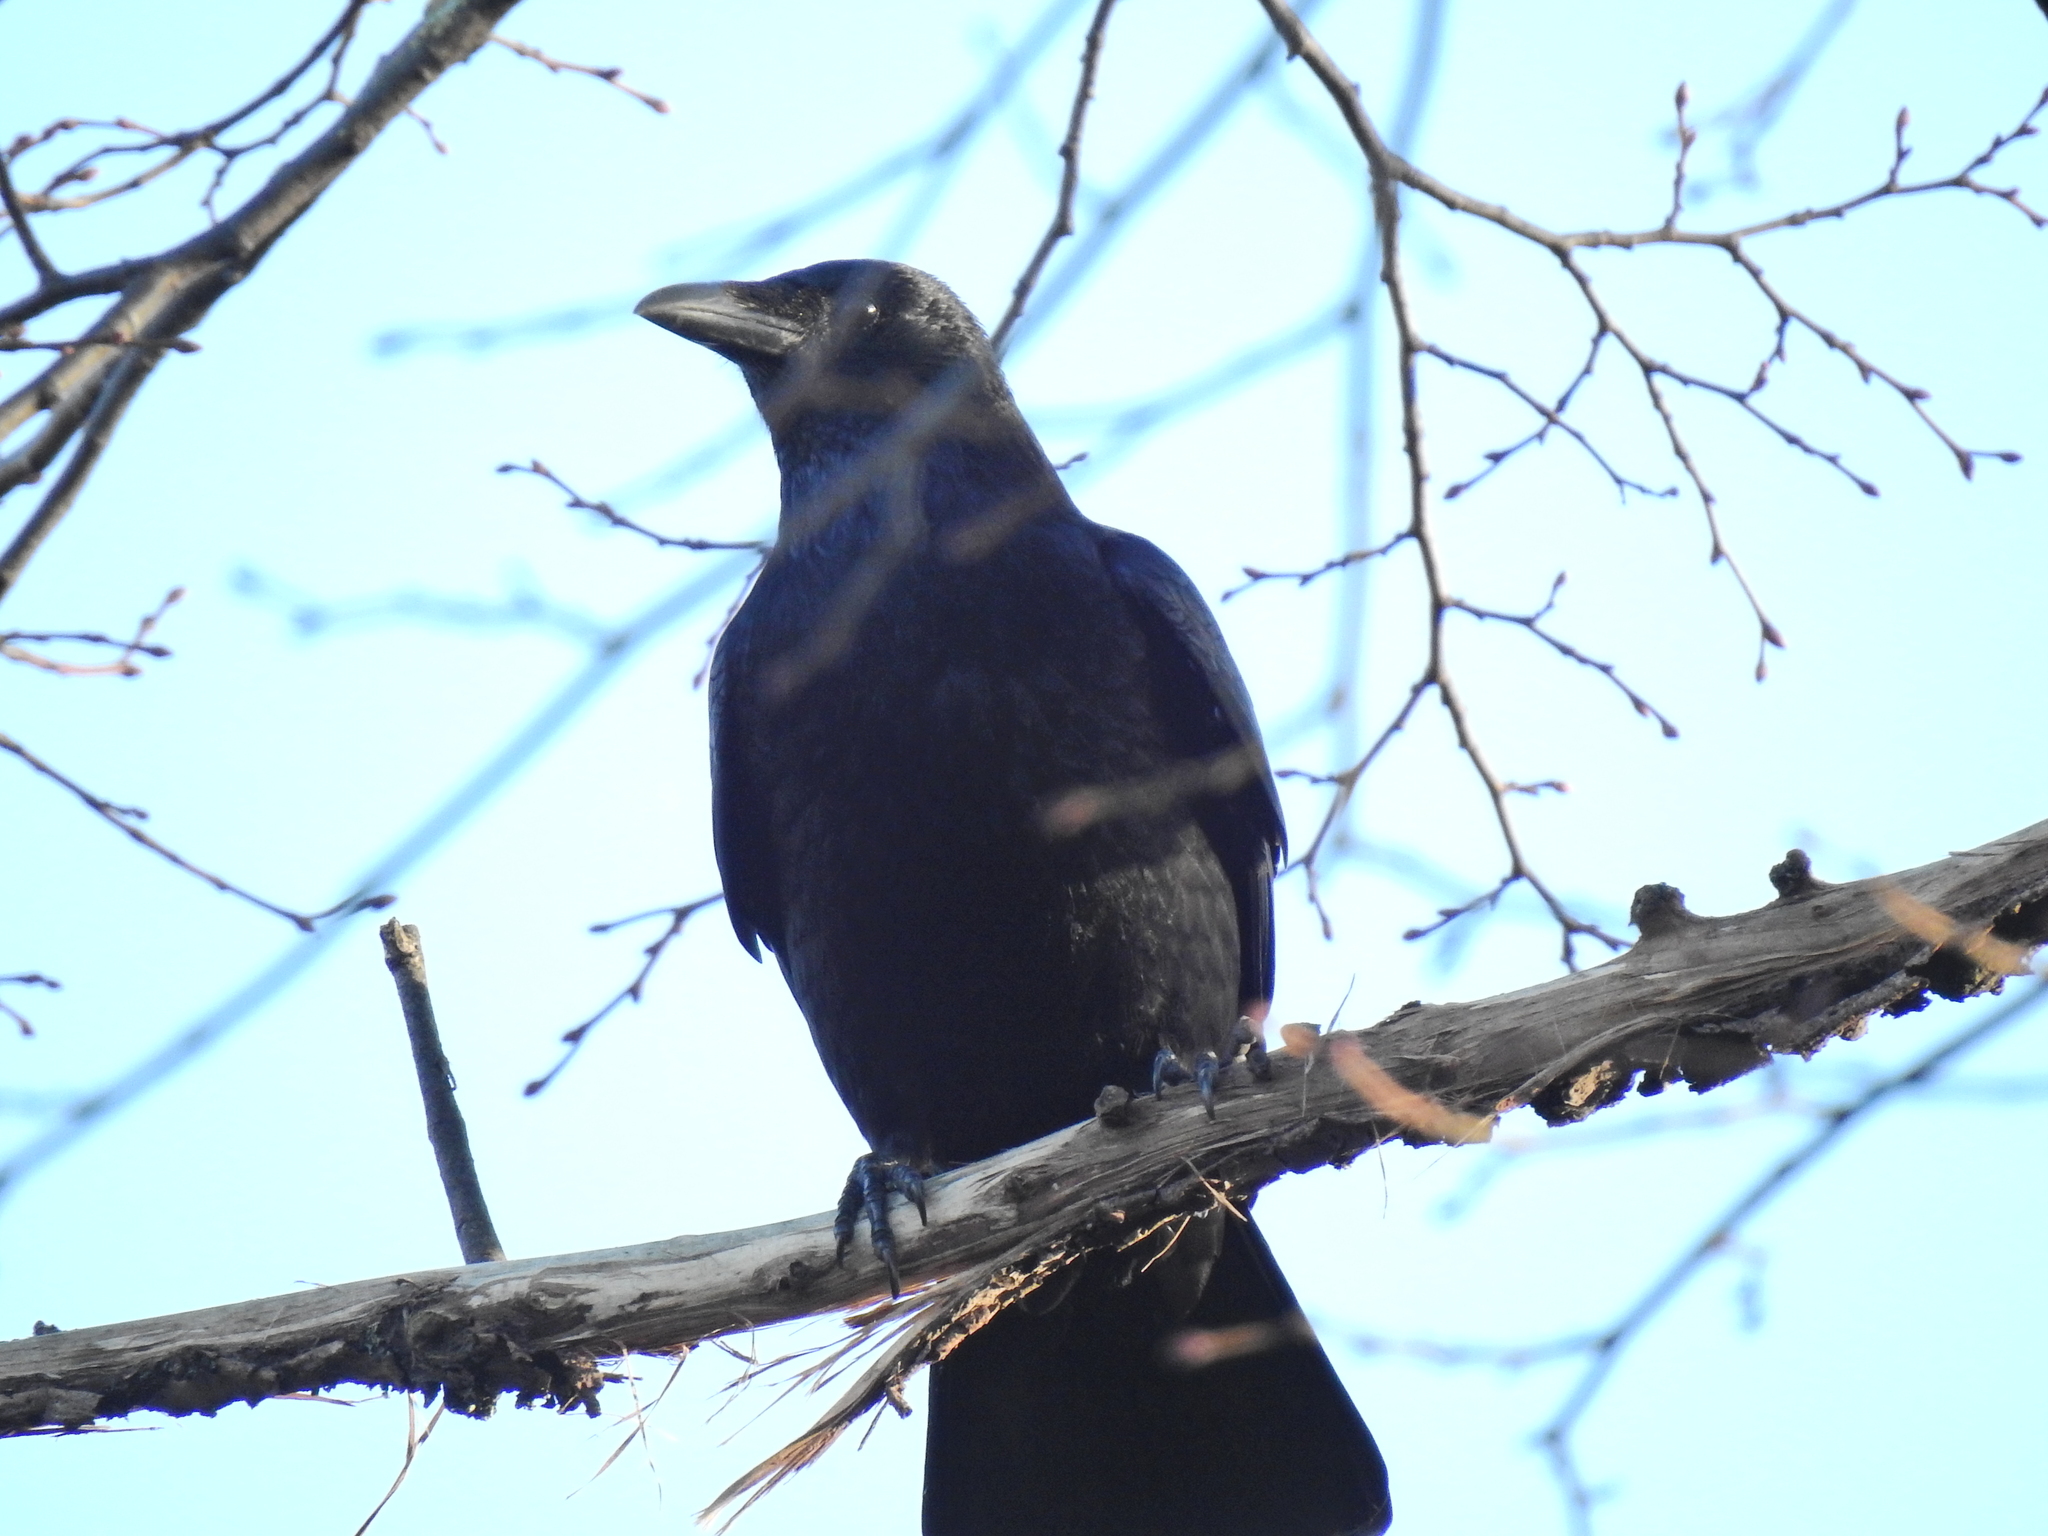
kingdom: Animalia
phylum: Chordata
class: Aves
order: Passeriformes
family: Corvidae
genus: Corvus
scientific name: Corvus corone
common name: Carrion crow
